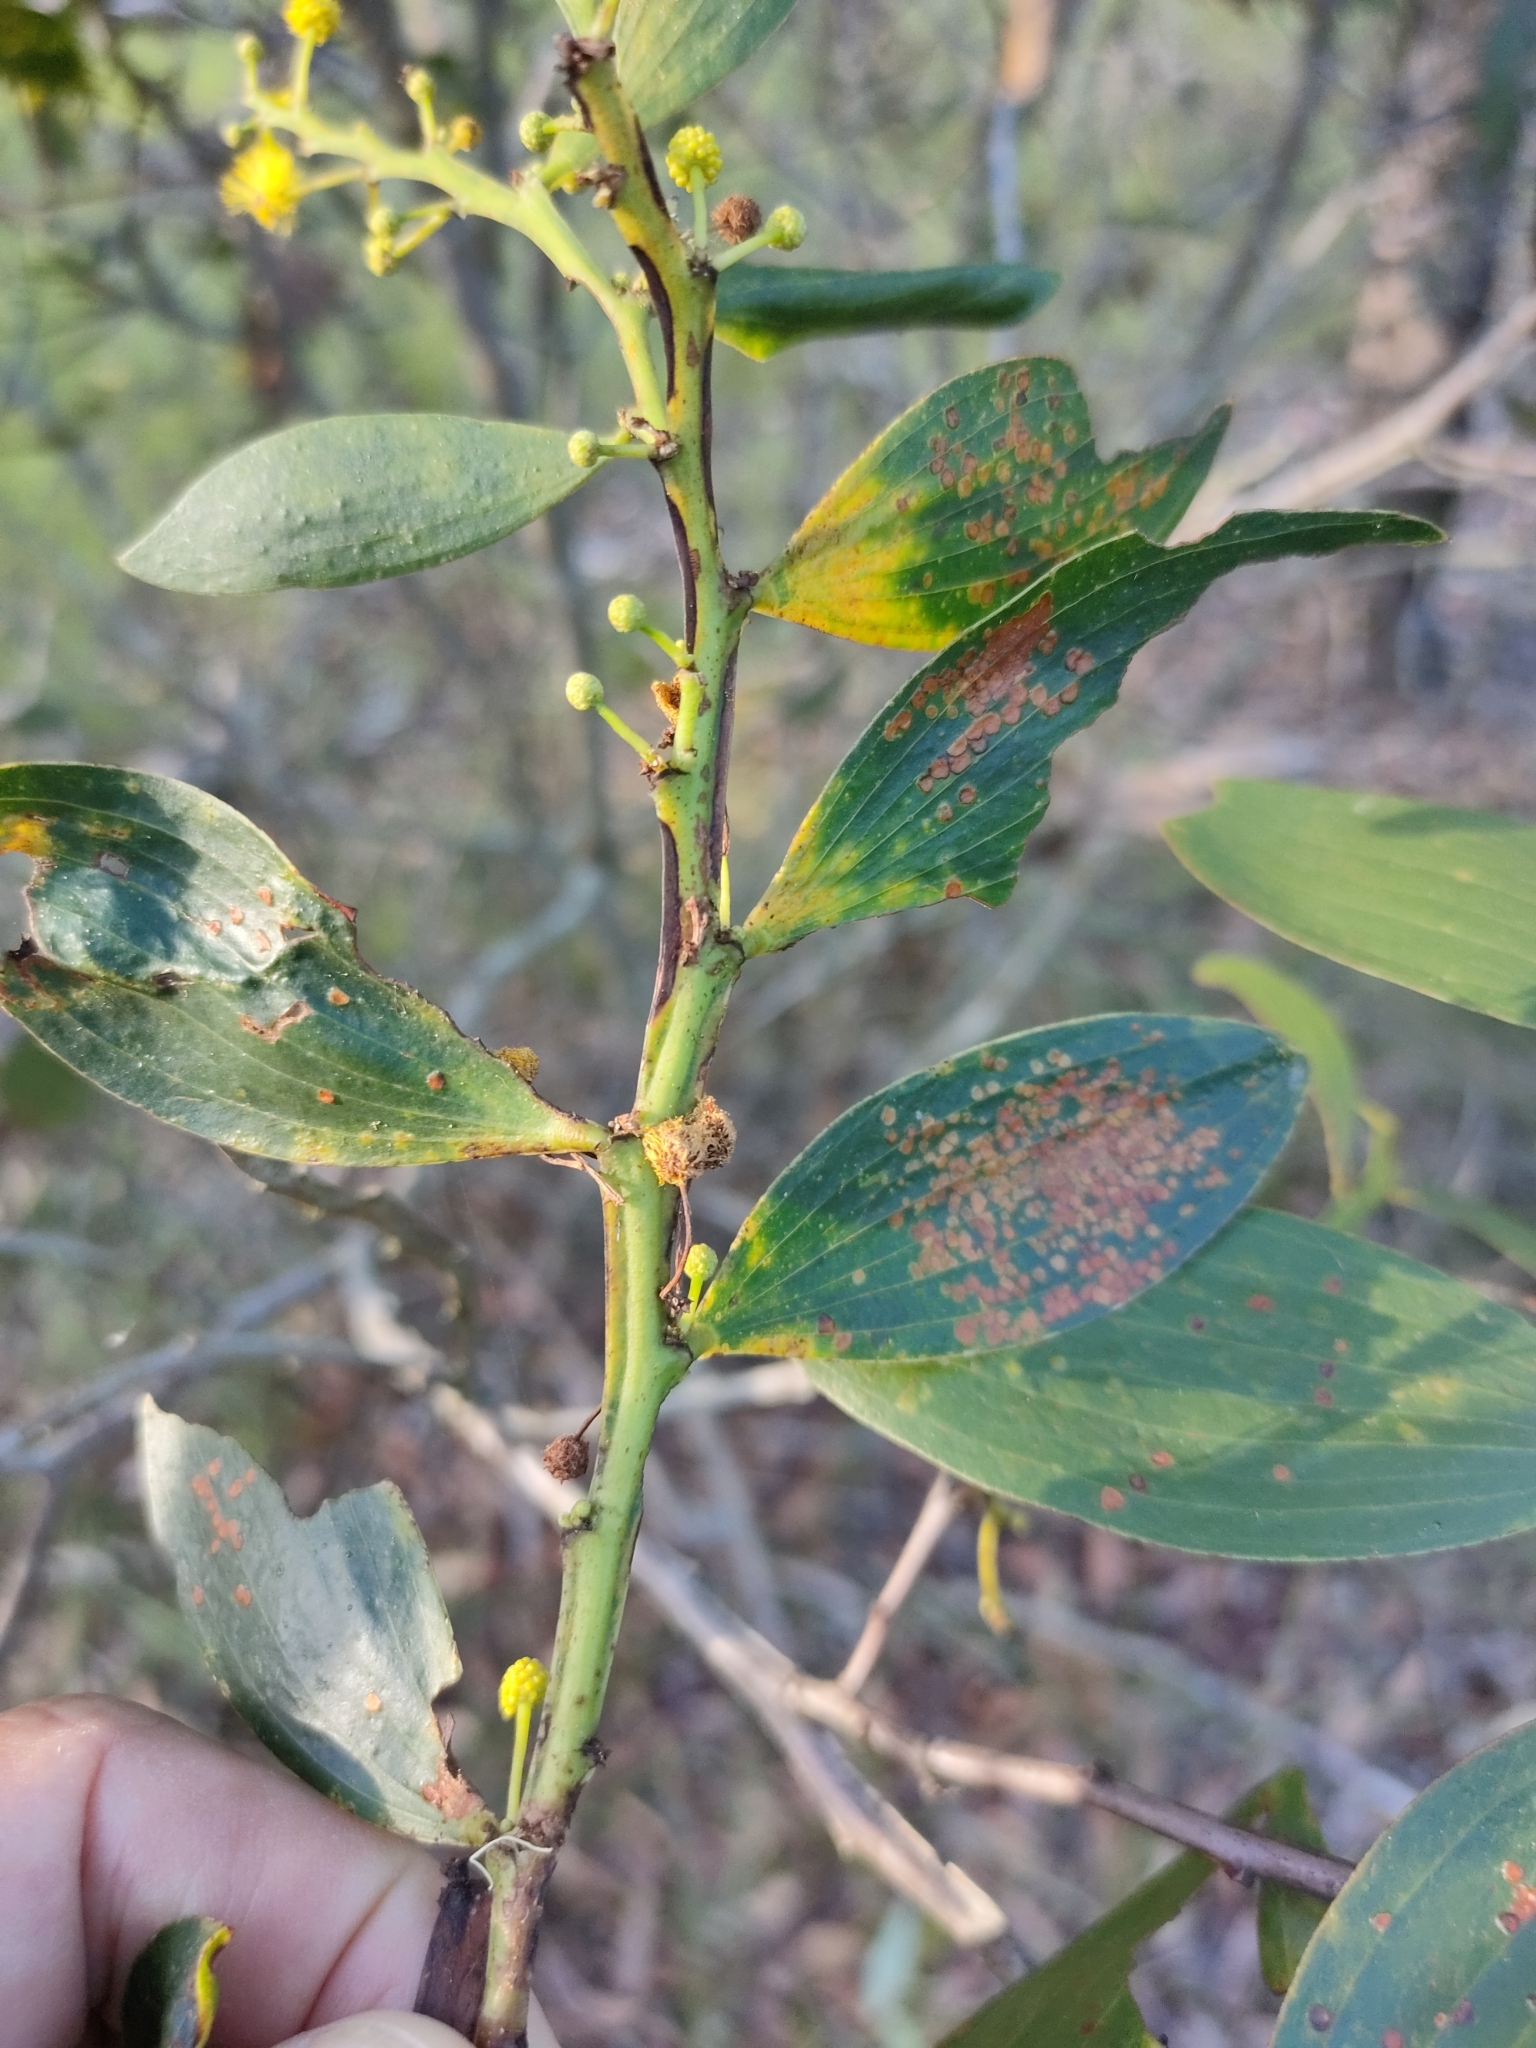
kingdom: Plantae
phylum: Tracheophyta
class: Magnoliopsida
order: Fabales
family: Fabaceae
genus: Acacia
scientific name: Acacia complanata
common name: Flat-stemmed wattle
